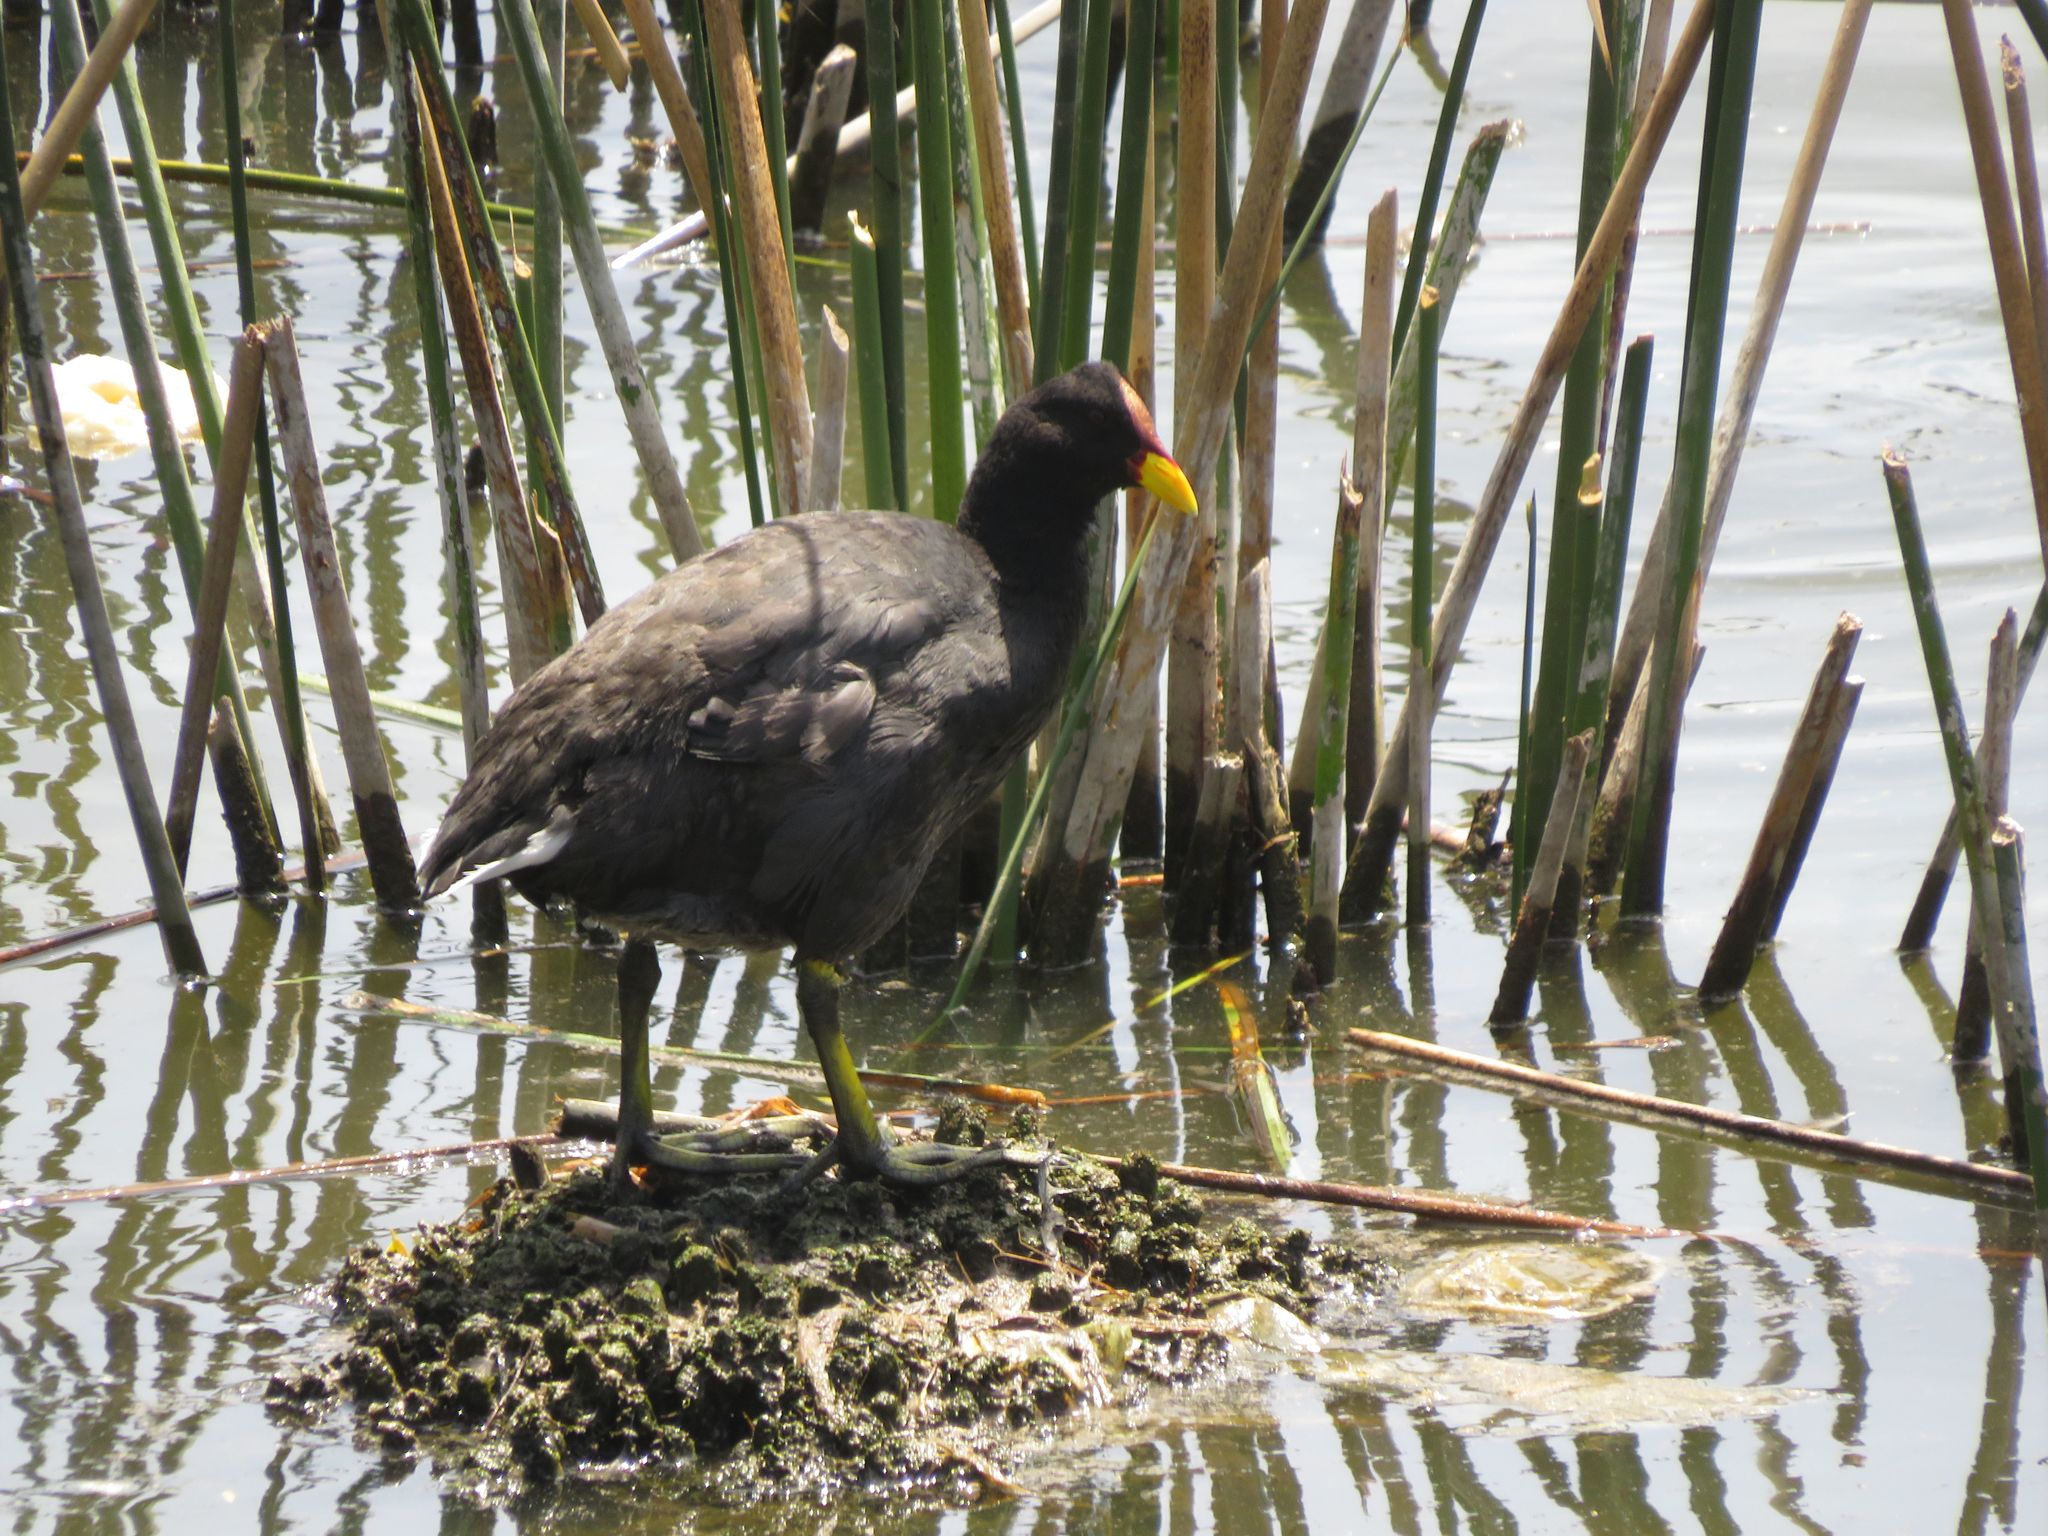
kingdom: Animalia
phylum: Chordata
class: Aves
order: Gruiformes
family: Rallidae
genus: Fulica
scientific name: Fulica rufifrons
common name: Red-fronted coot
